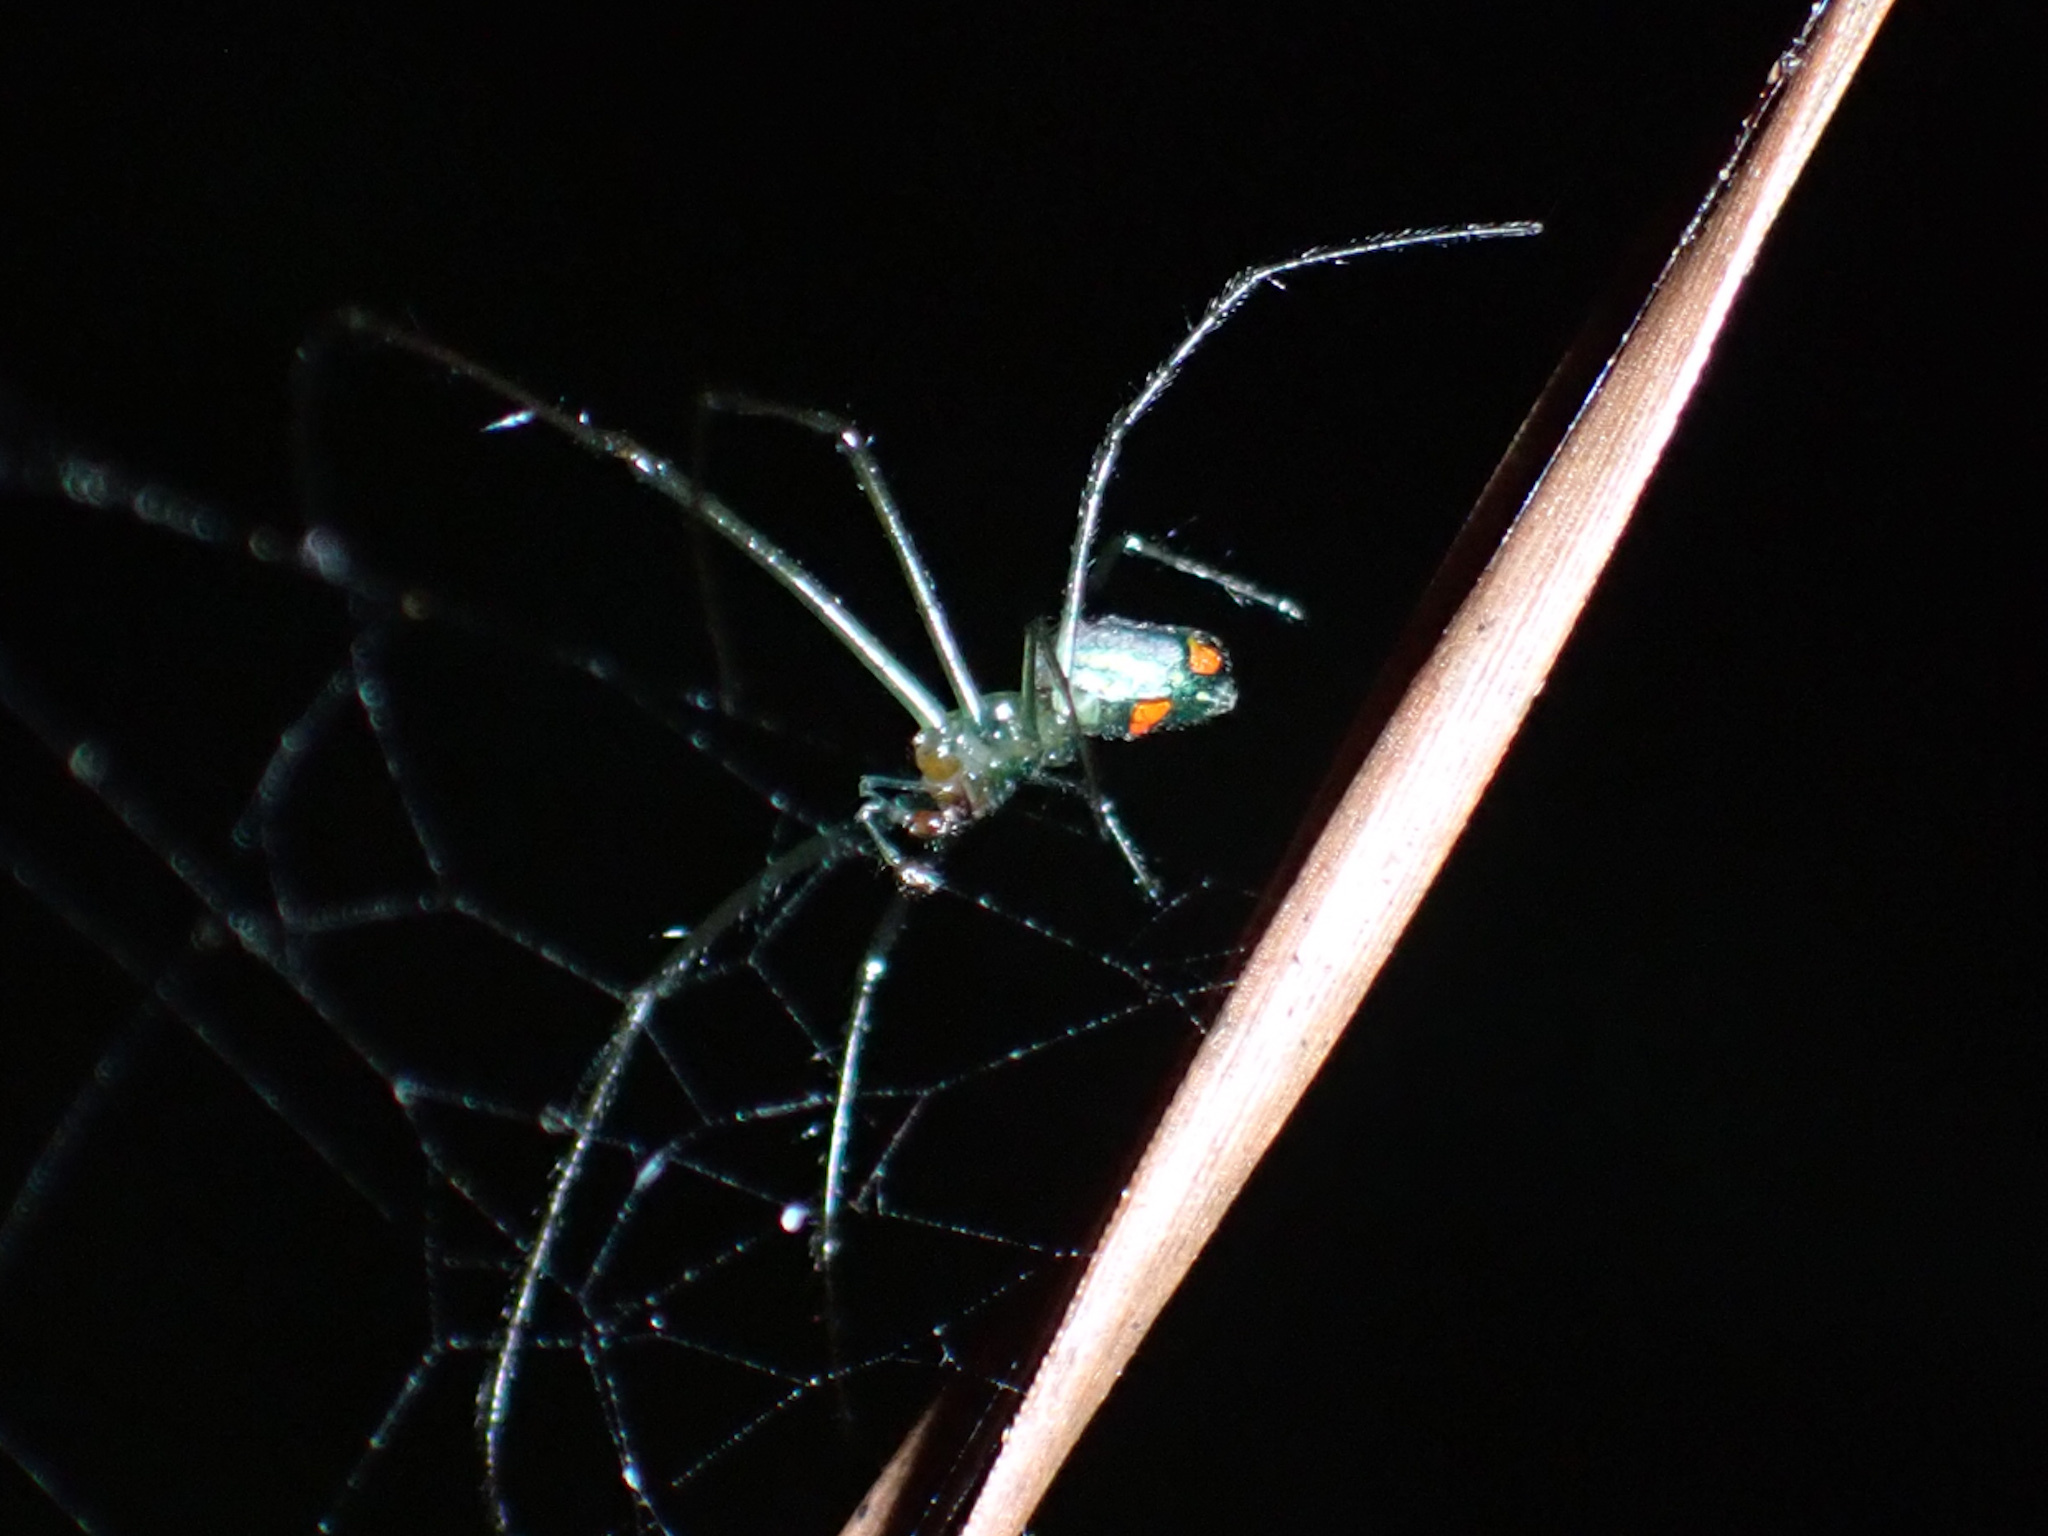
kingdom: Animalia
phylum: Arthropoda
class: Arachnida
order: Araneae
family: Tetragnathidae
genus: Leucauge
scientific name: Leucauge argyrobapta
